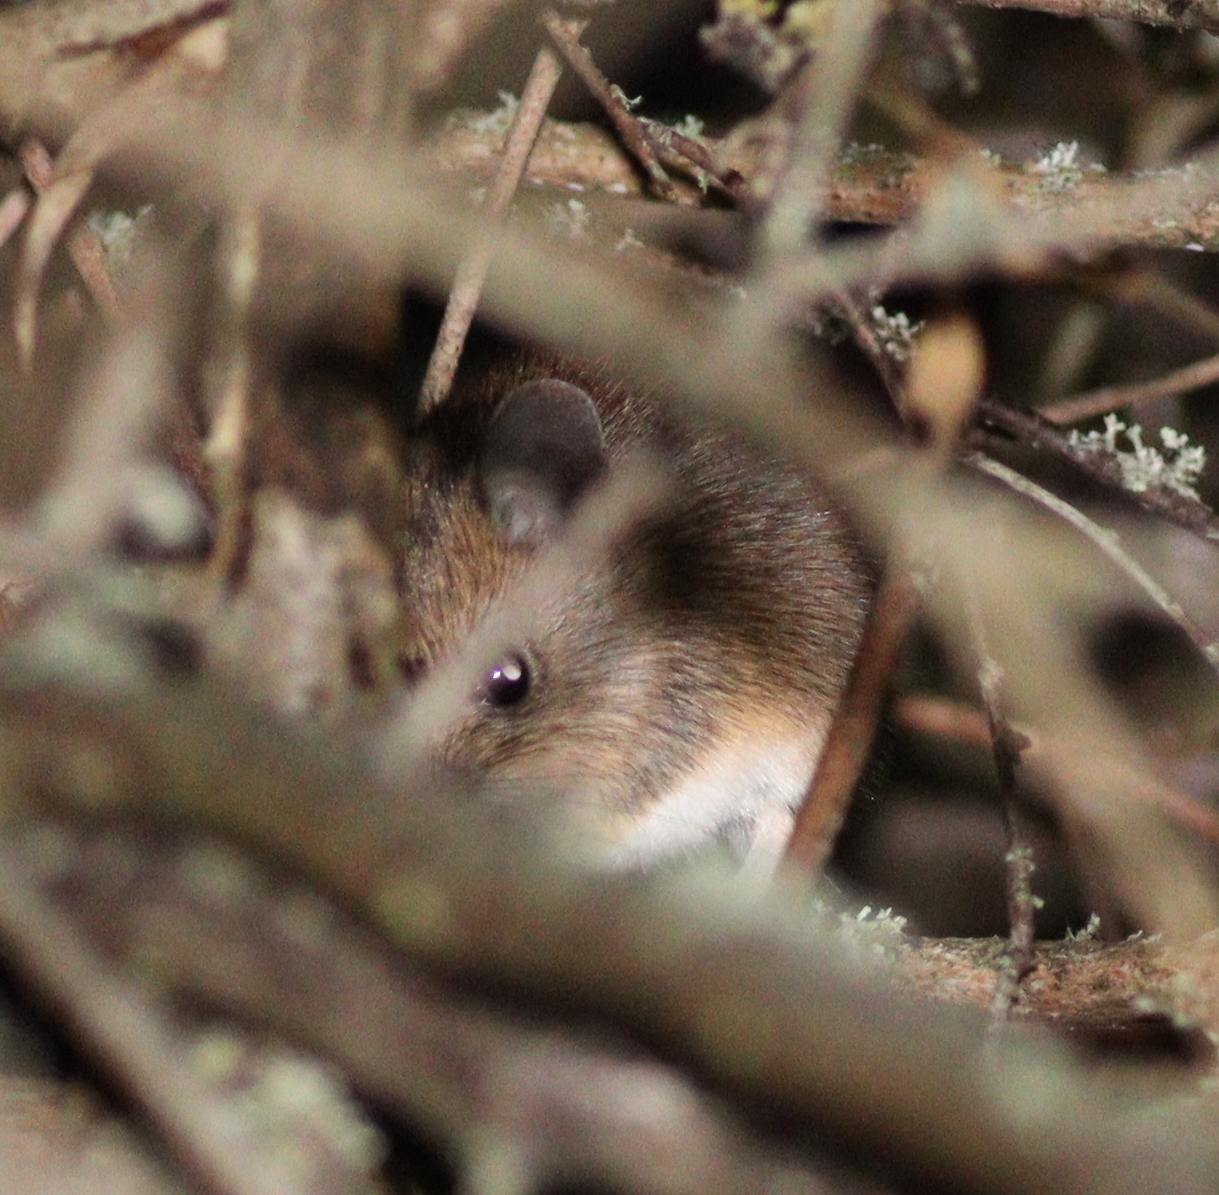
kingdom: Animalia
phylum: Chordata
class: Mammalia
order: Rodentia
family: Muridae
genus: Apodemus
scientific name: Apodemus sylvaticus
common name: Wood mouse
